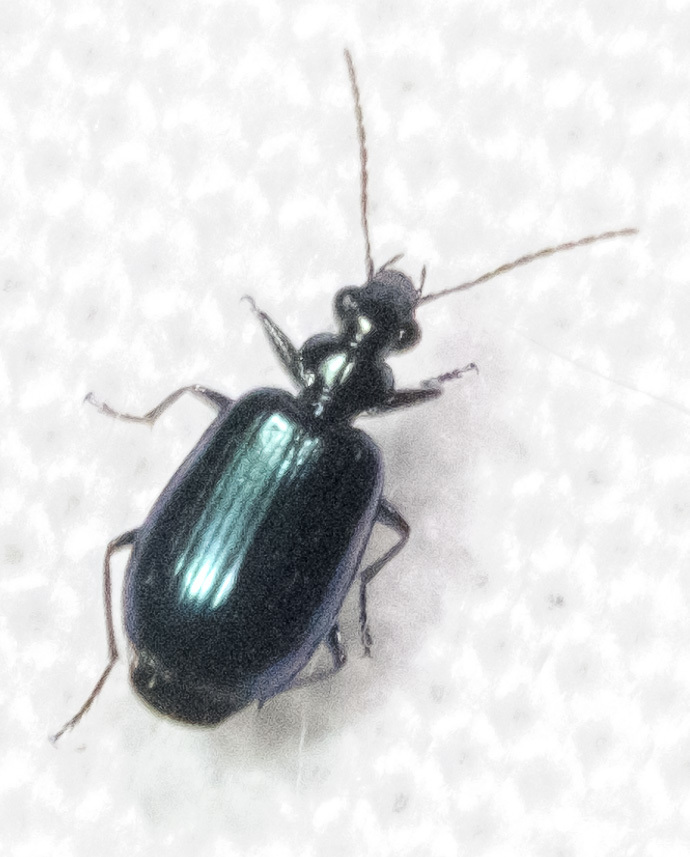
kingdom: Animalia
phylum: Arthropoda
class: Insecta
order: Coleoptera
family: Carabidae
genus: Lebia
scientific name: Lebia viridis
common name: Flower lebia beetle
